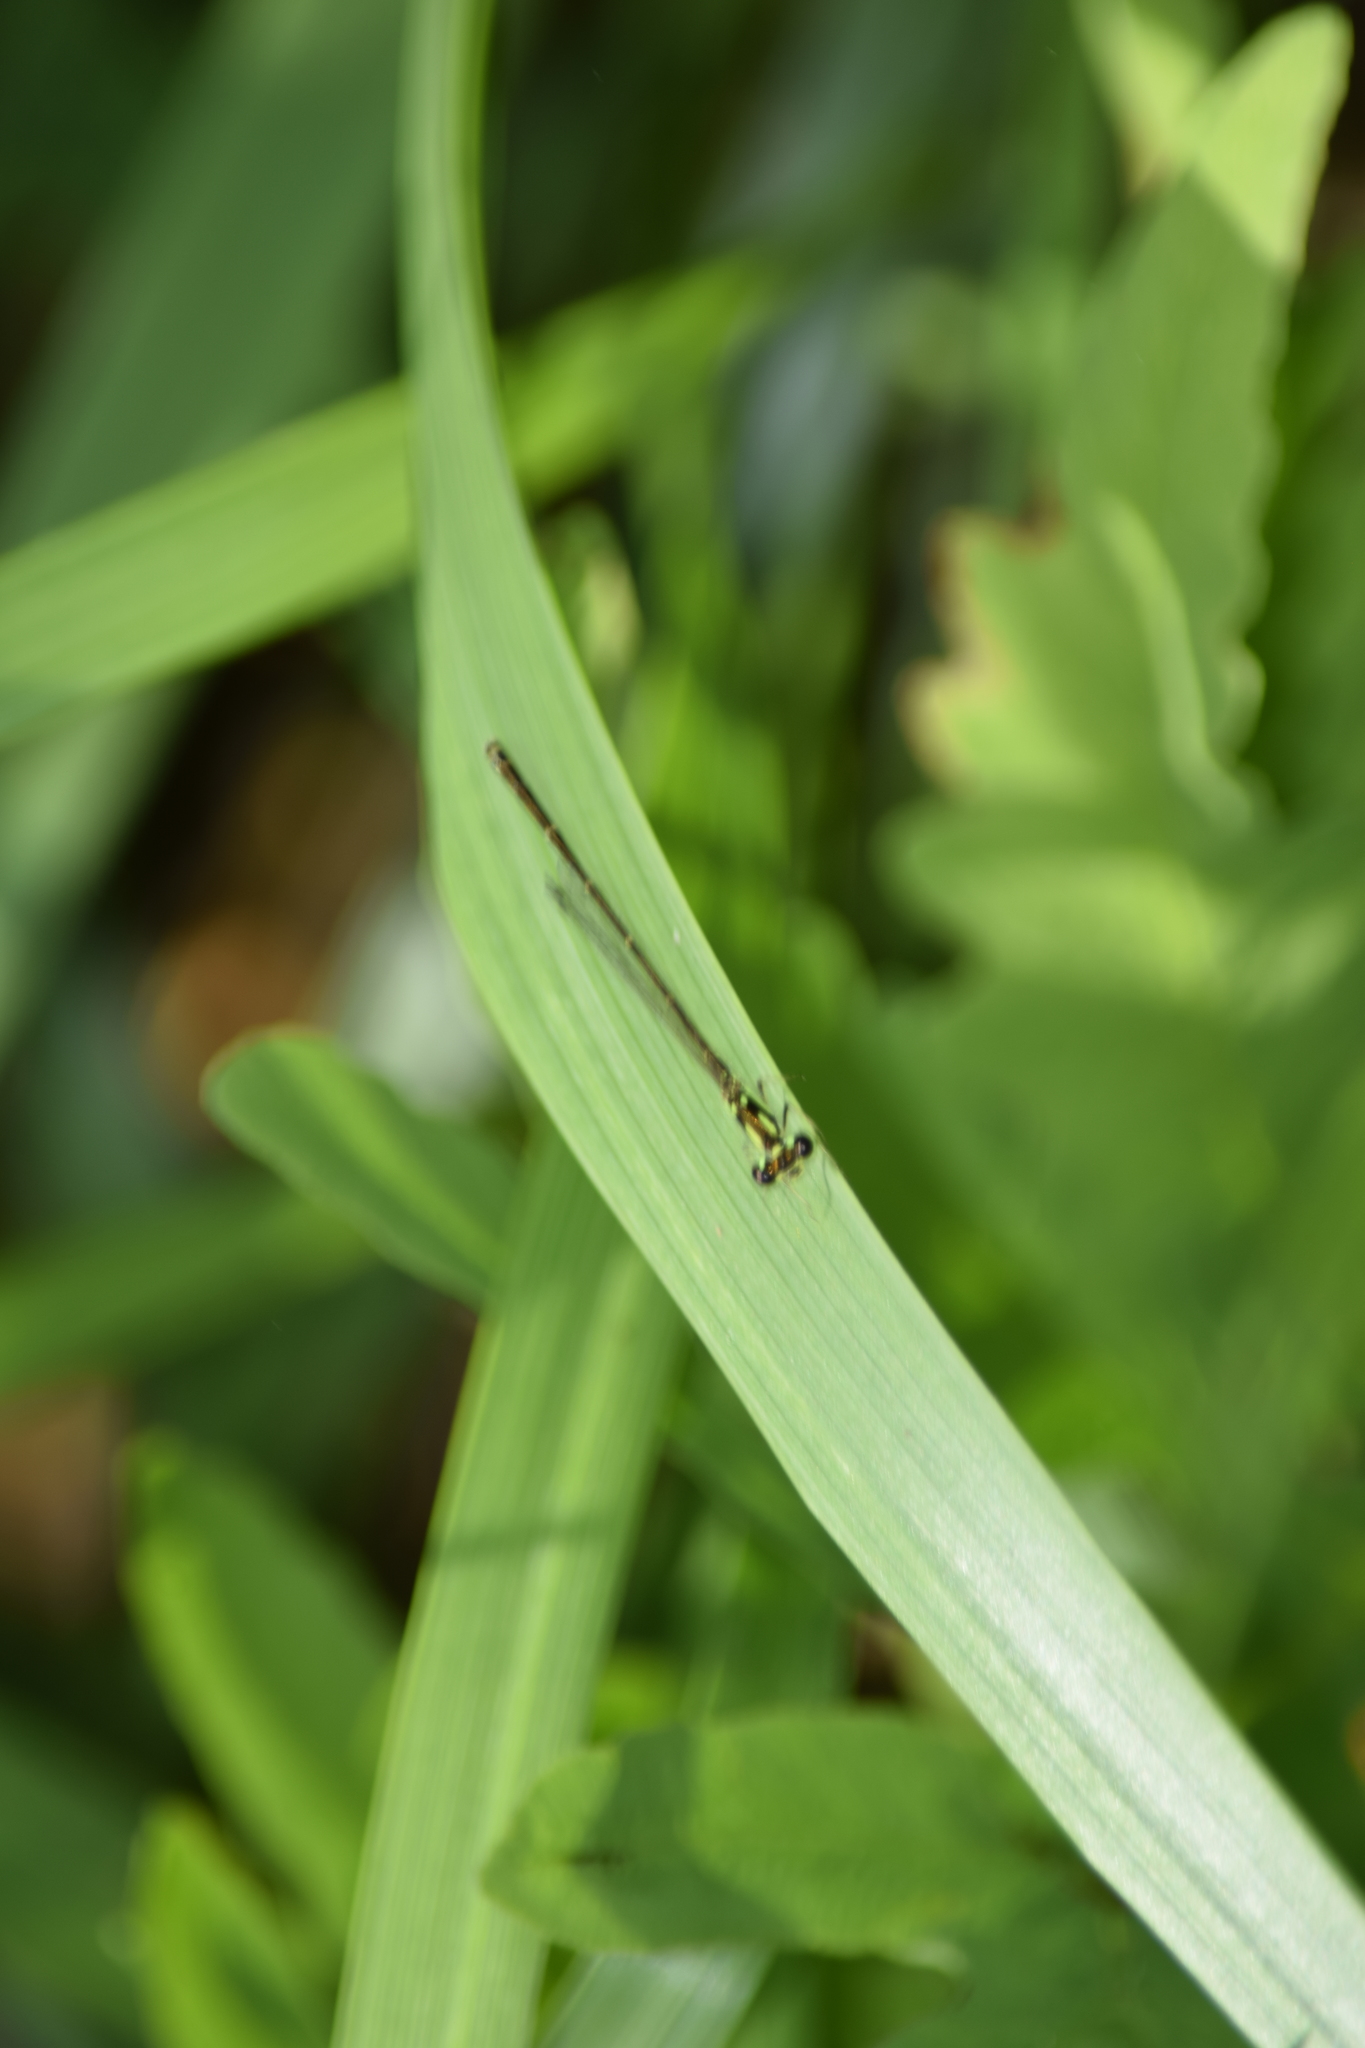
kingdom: Animalia
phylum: Arthropoda
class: Insecta
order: Odonata
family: Coenagrionidae
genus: Ischnura
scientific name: Ischnura posita
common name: Fragile forktail
